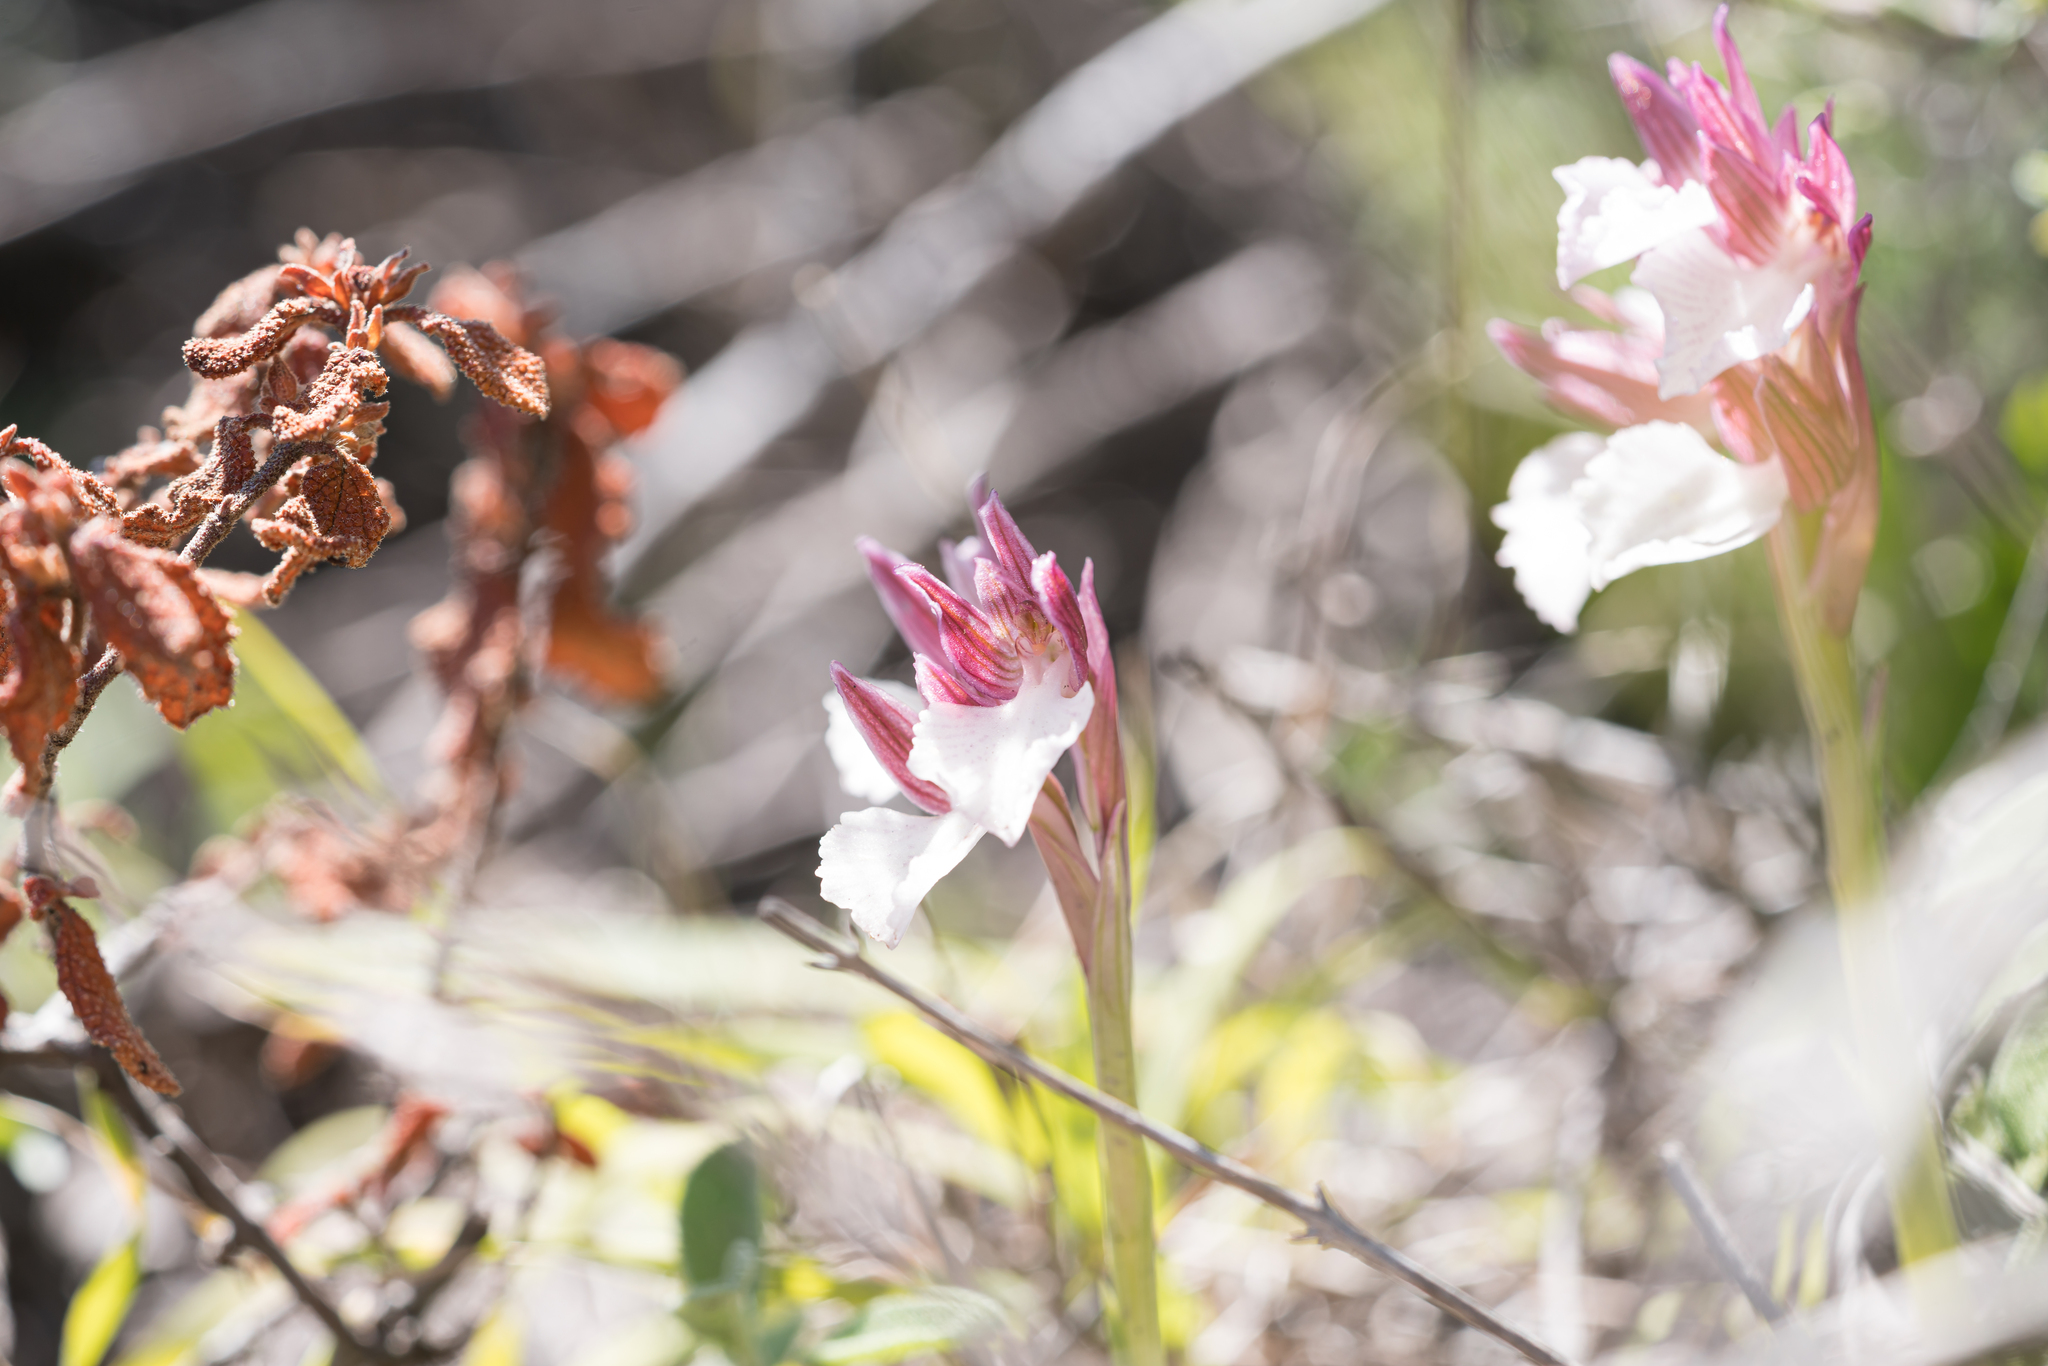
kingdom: Plantae
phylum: Tracheophyta
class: Liliopsida
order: Asparagales
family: Orchidaceae
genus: Anacamptis
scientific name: Anacamptis papilionacea
